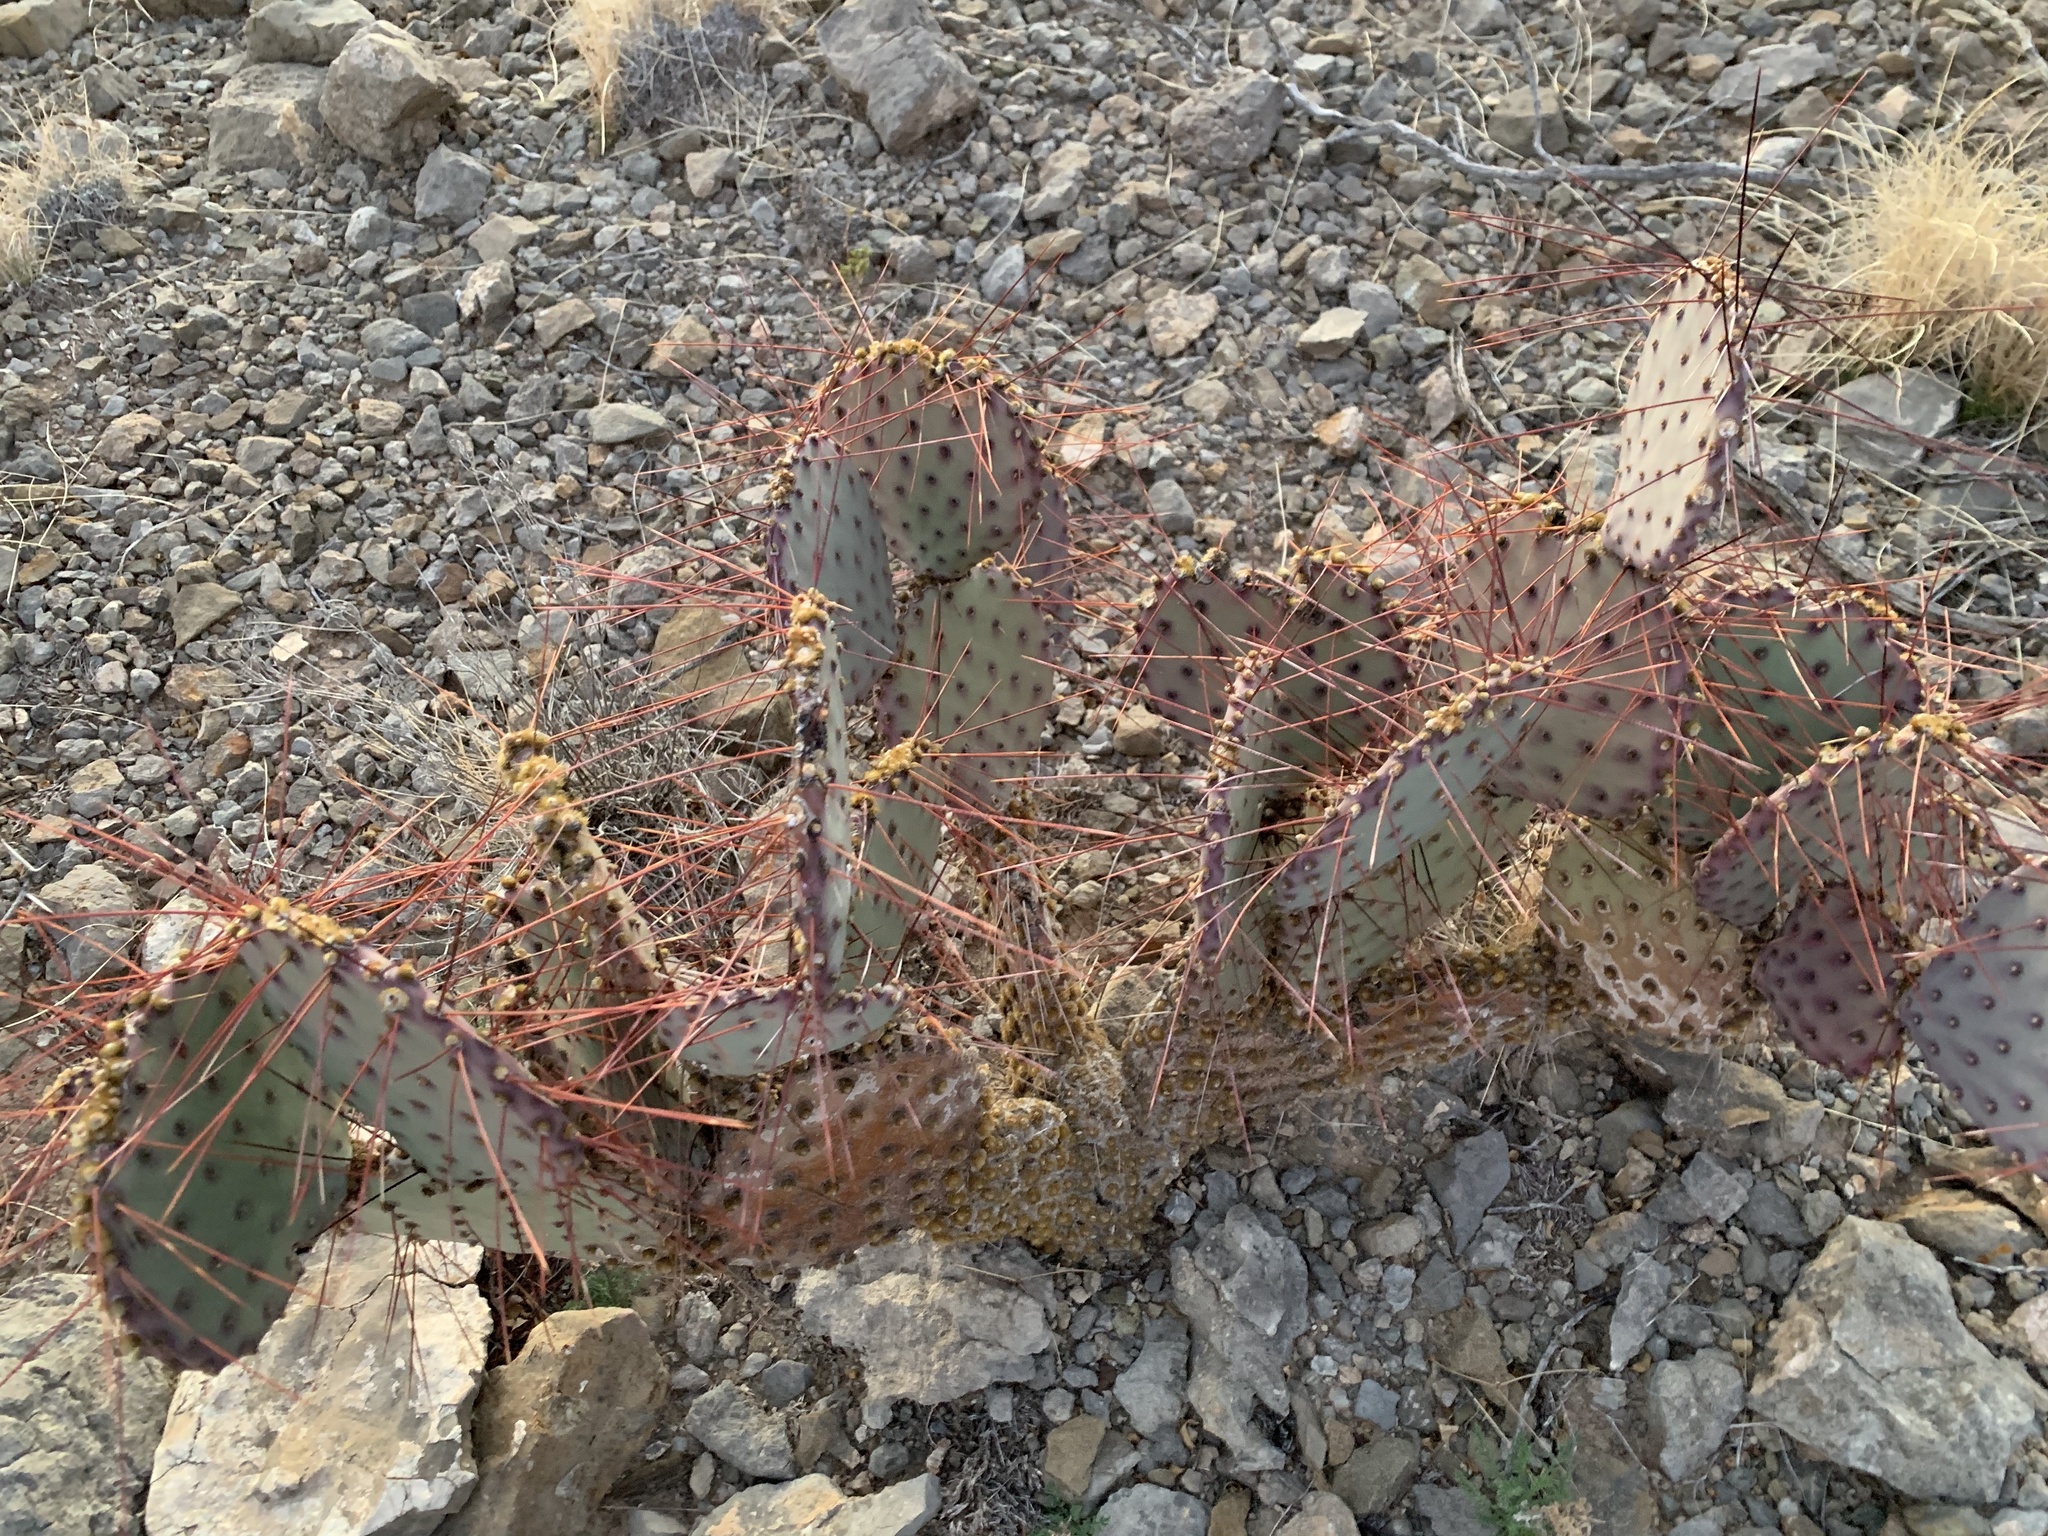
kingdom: Plantae
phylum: Tracheophyta
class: Magnoliopsida
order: Caryophyllales
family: Cactaceae
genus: Opuntia
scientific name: Opuntia macrocentra
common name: Purple prickly-pear
